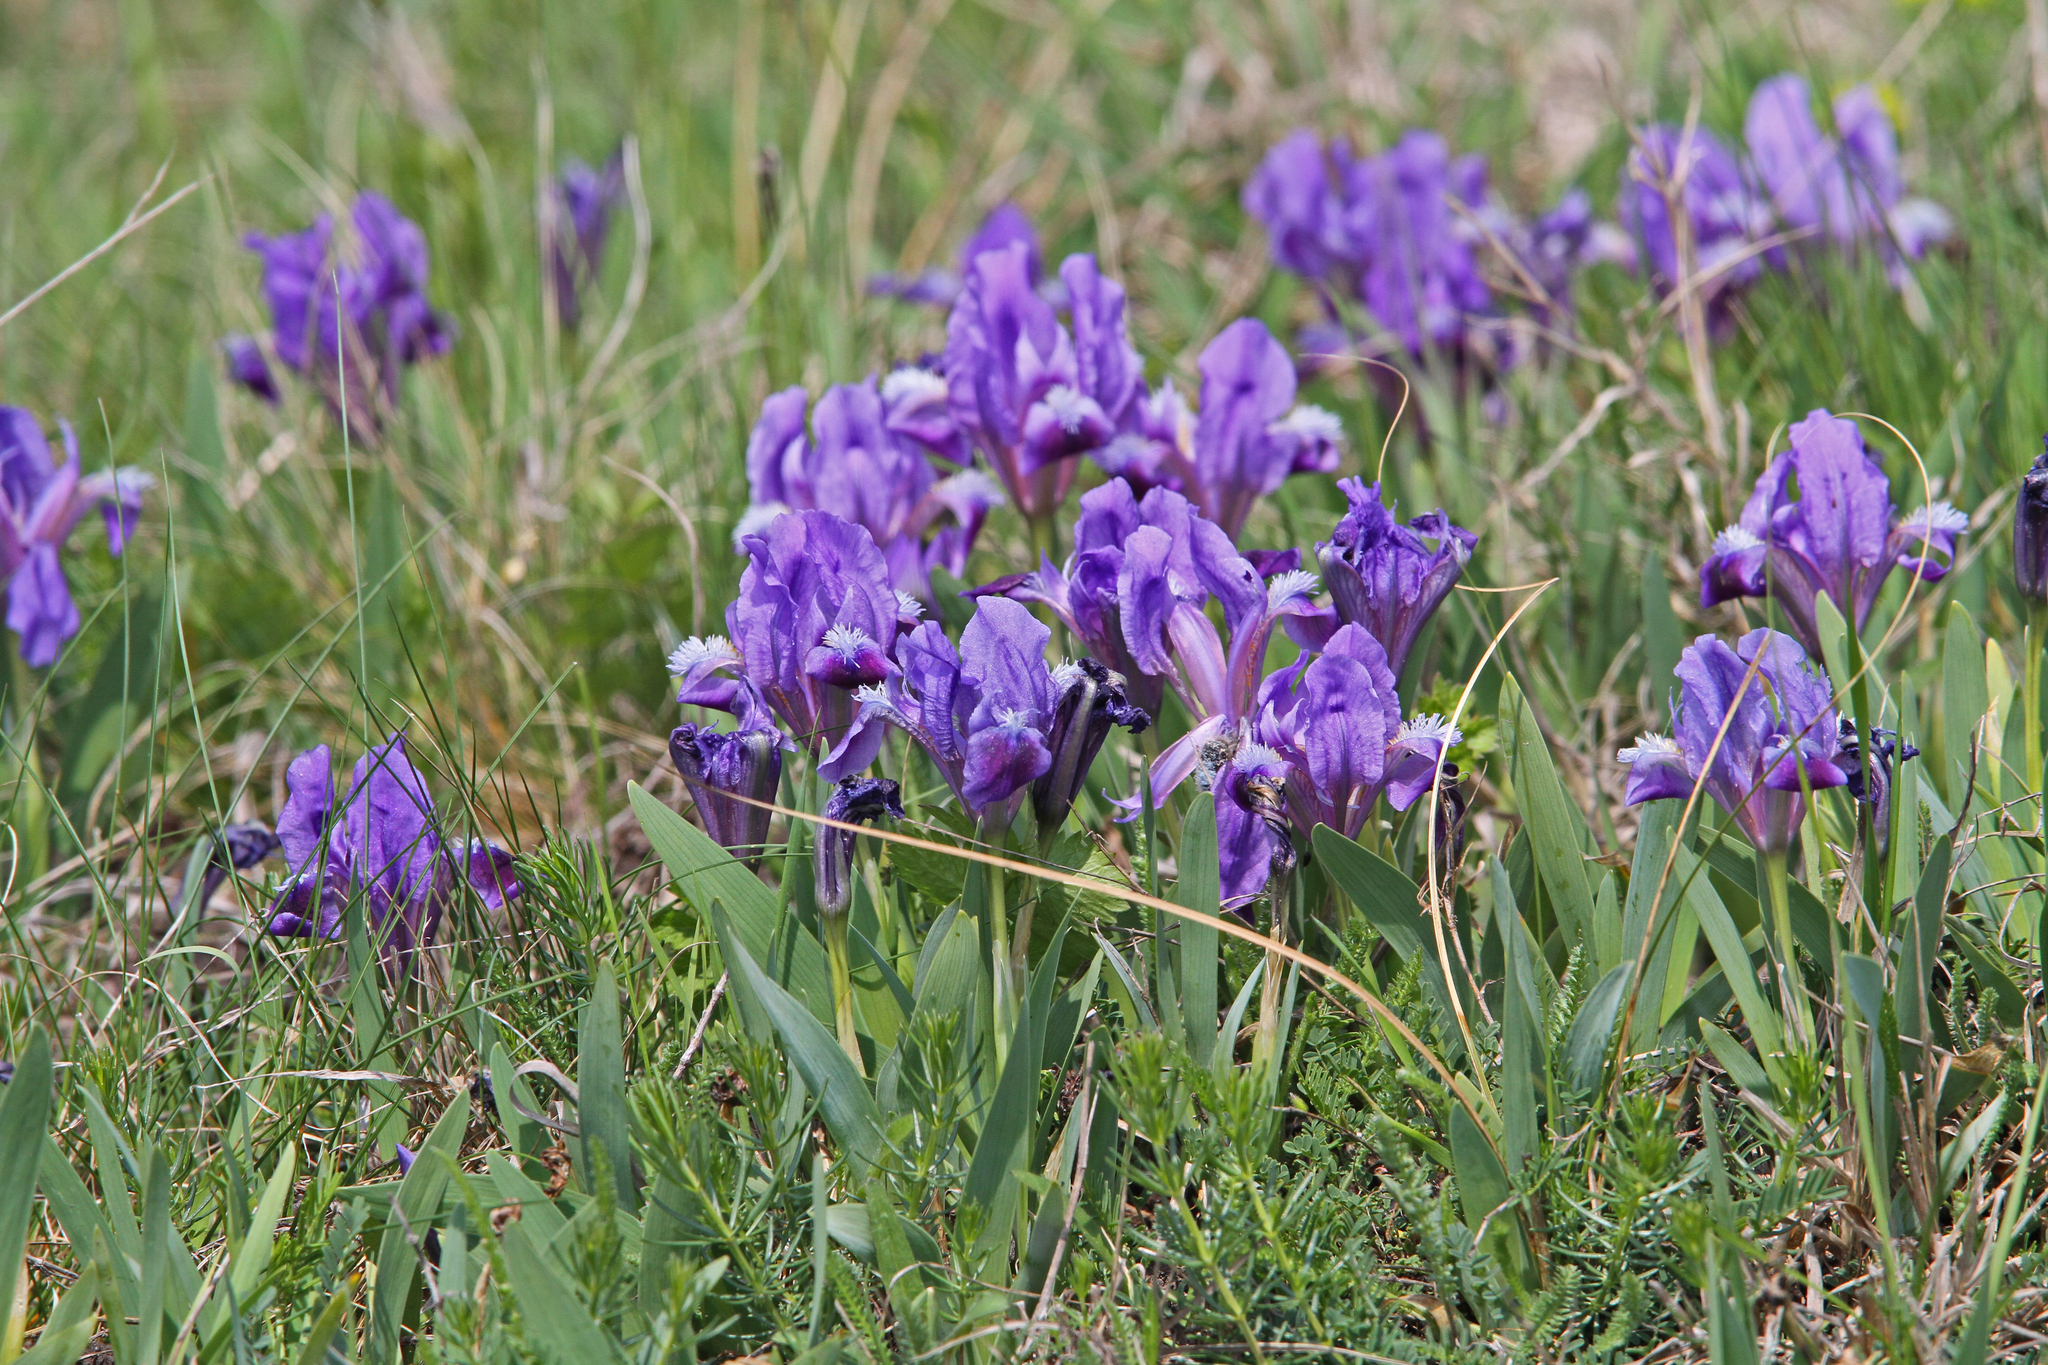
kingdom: Plantae
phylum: Tracheophyta
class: Liliopsida
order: Asparagales
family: Iridaceae
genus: Iris
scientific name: Iris pumila
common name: Dwarf iris
